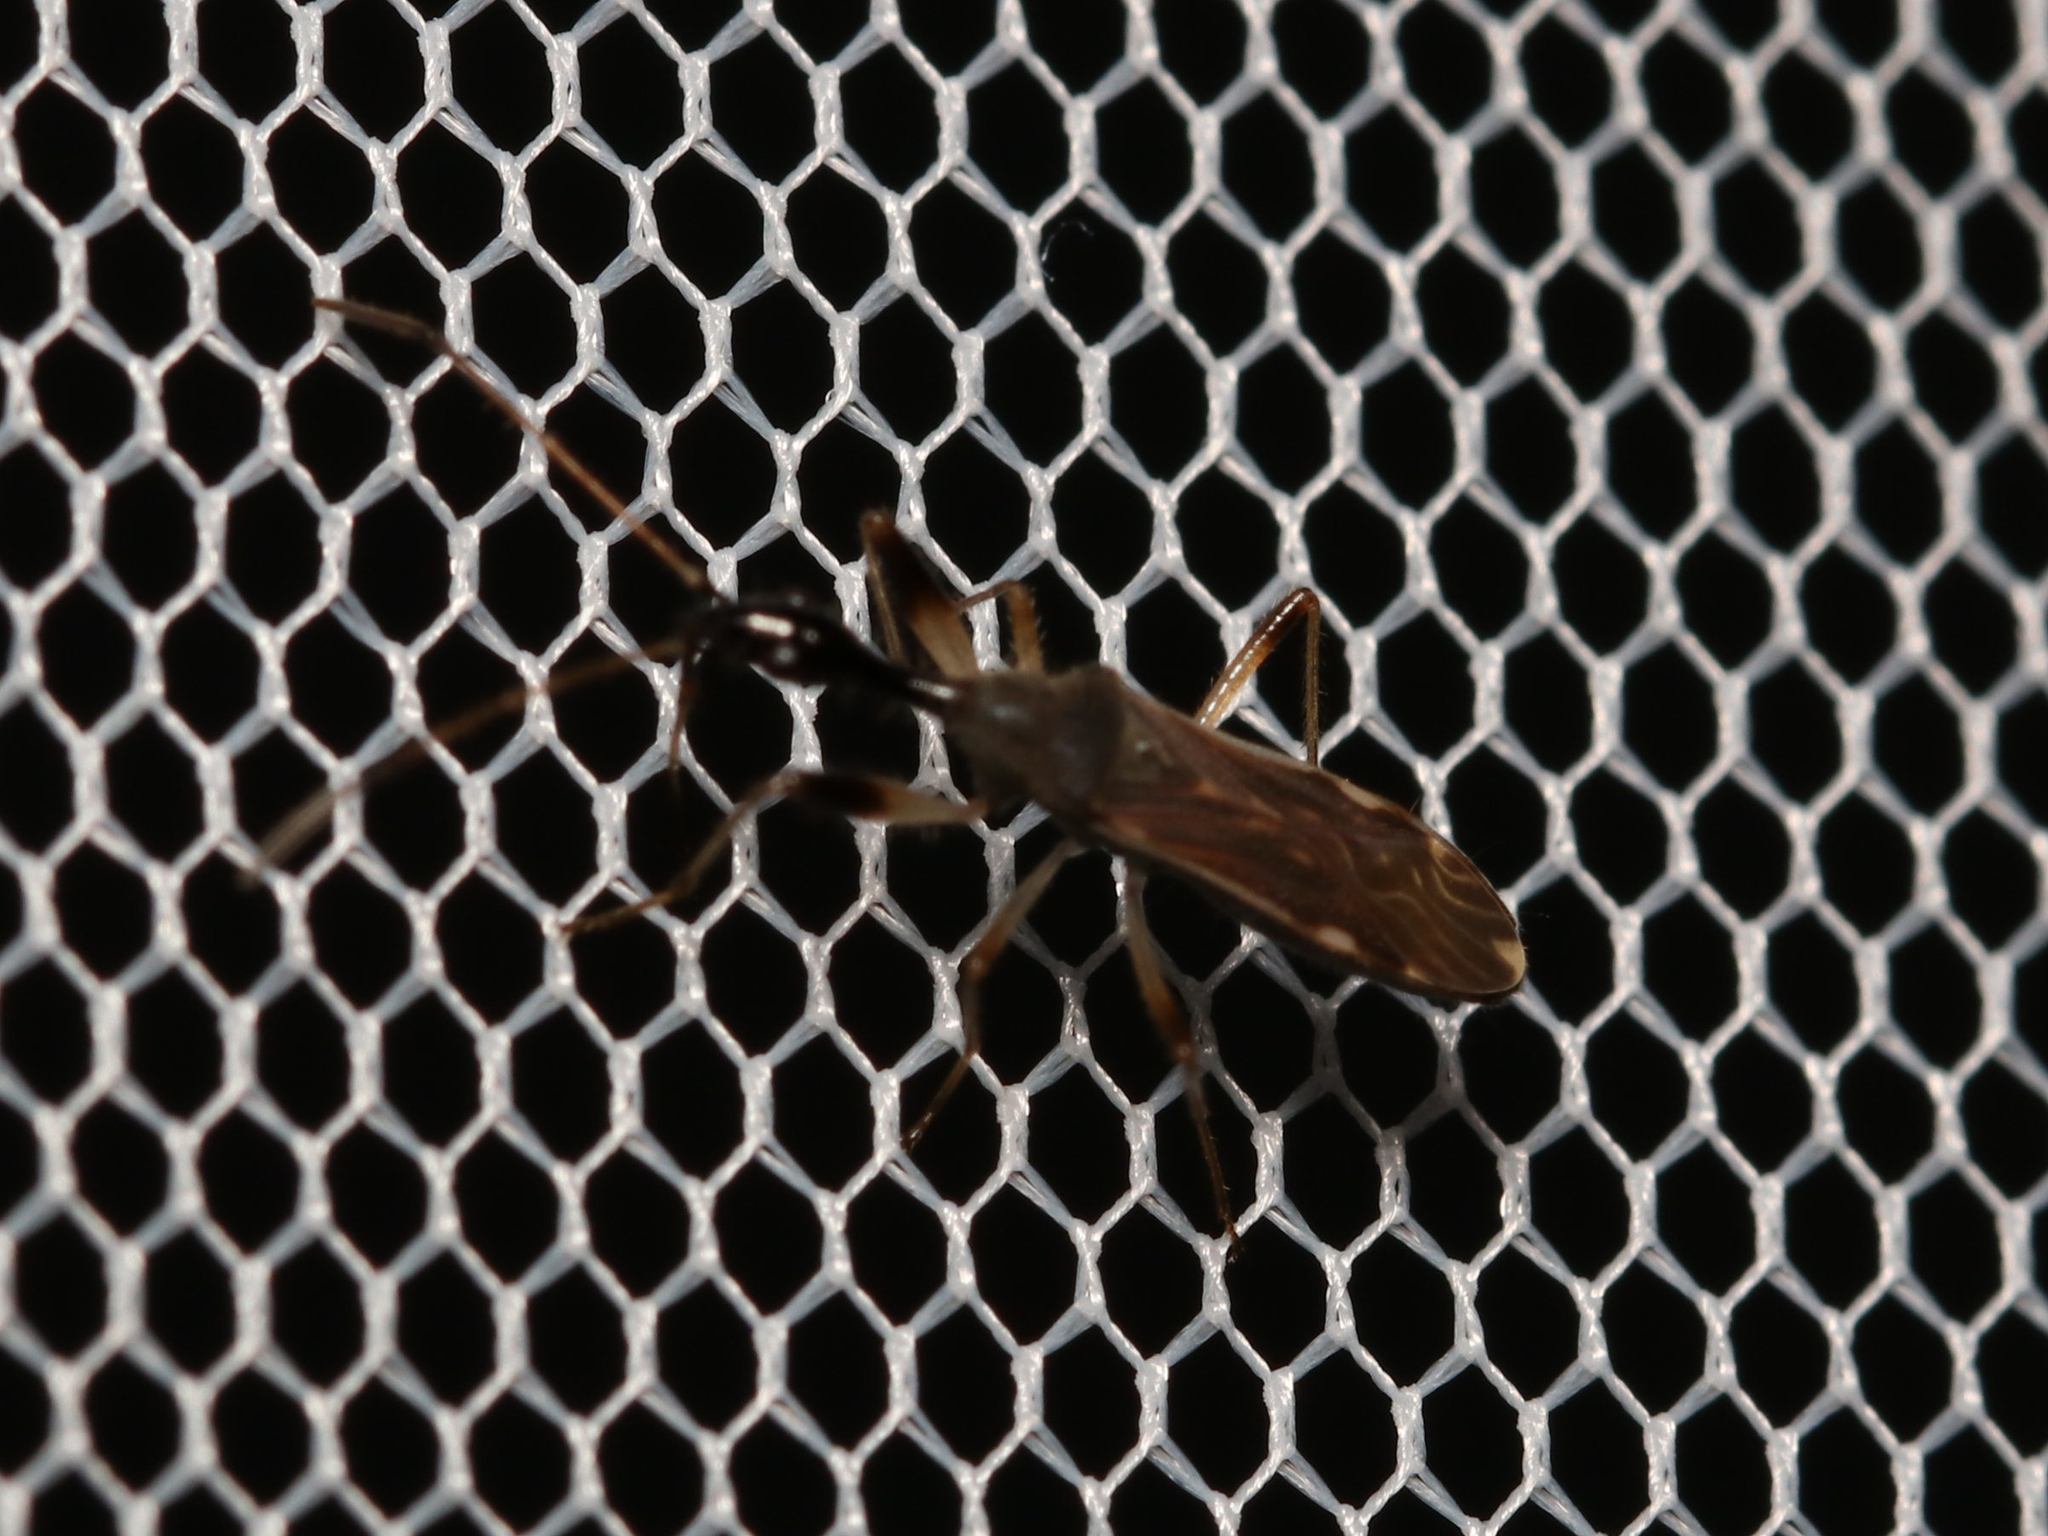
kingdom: Animalia
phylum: Arthropoda
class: Insecta
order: Hemiptera
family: Rhyparochromidae
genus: Myodocha
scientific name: Myodocha serripes
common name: Long-necked seed bug
